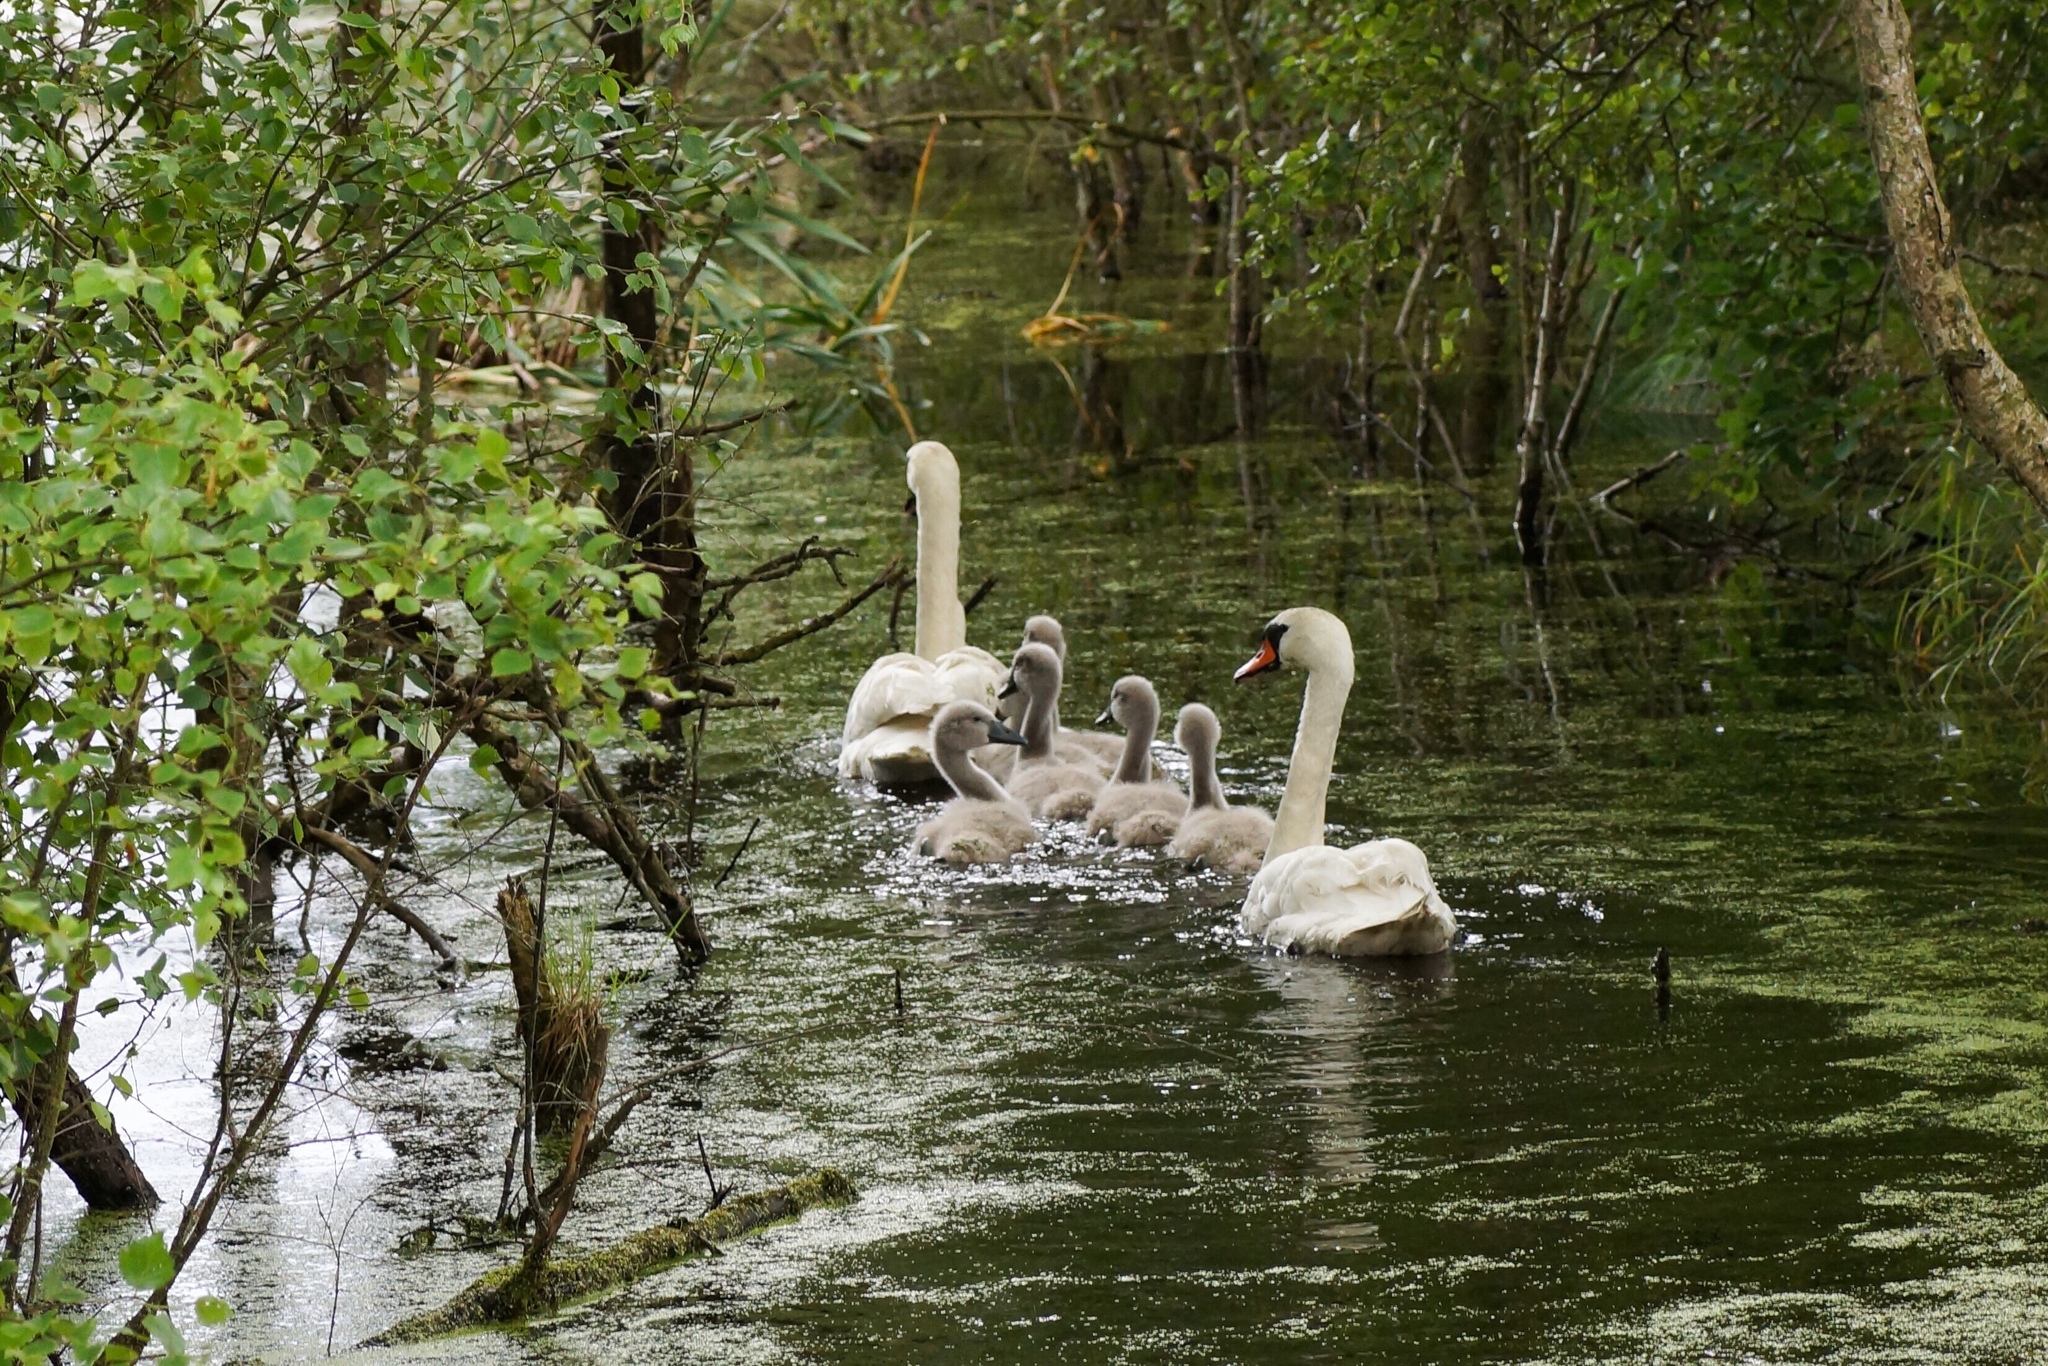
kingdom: Animalia
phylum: Chordata
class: Aves
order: Anseriformes
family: Anatidae
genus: Cygnus
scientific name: Cygnus olor
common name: Mute swan
